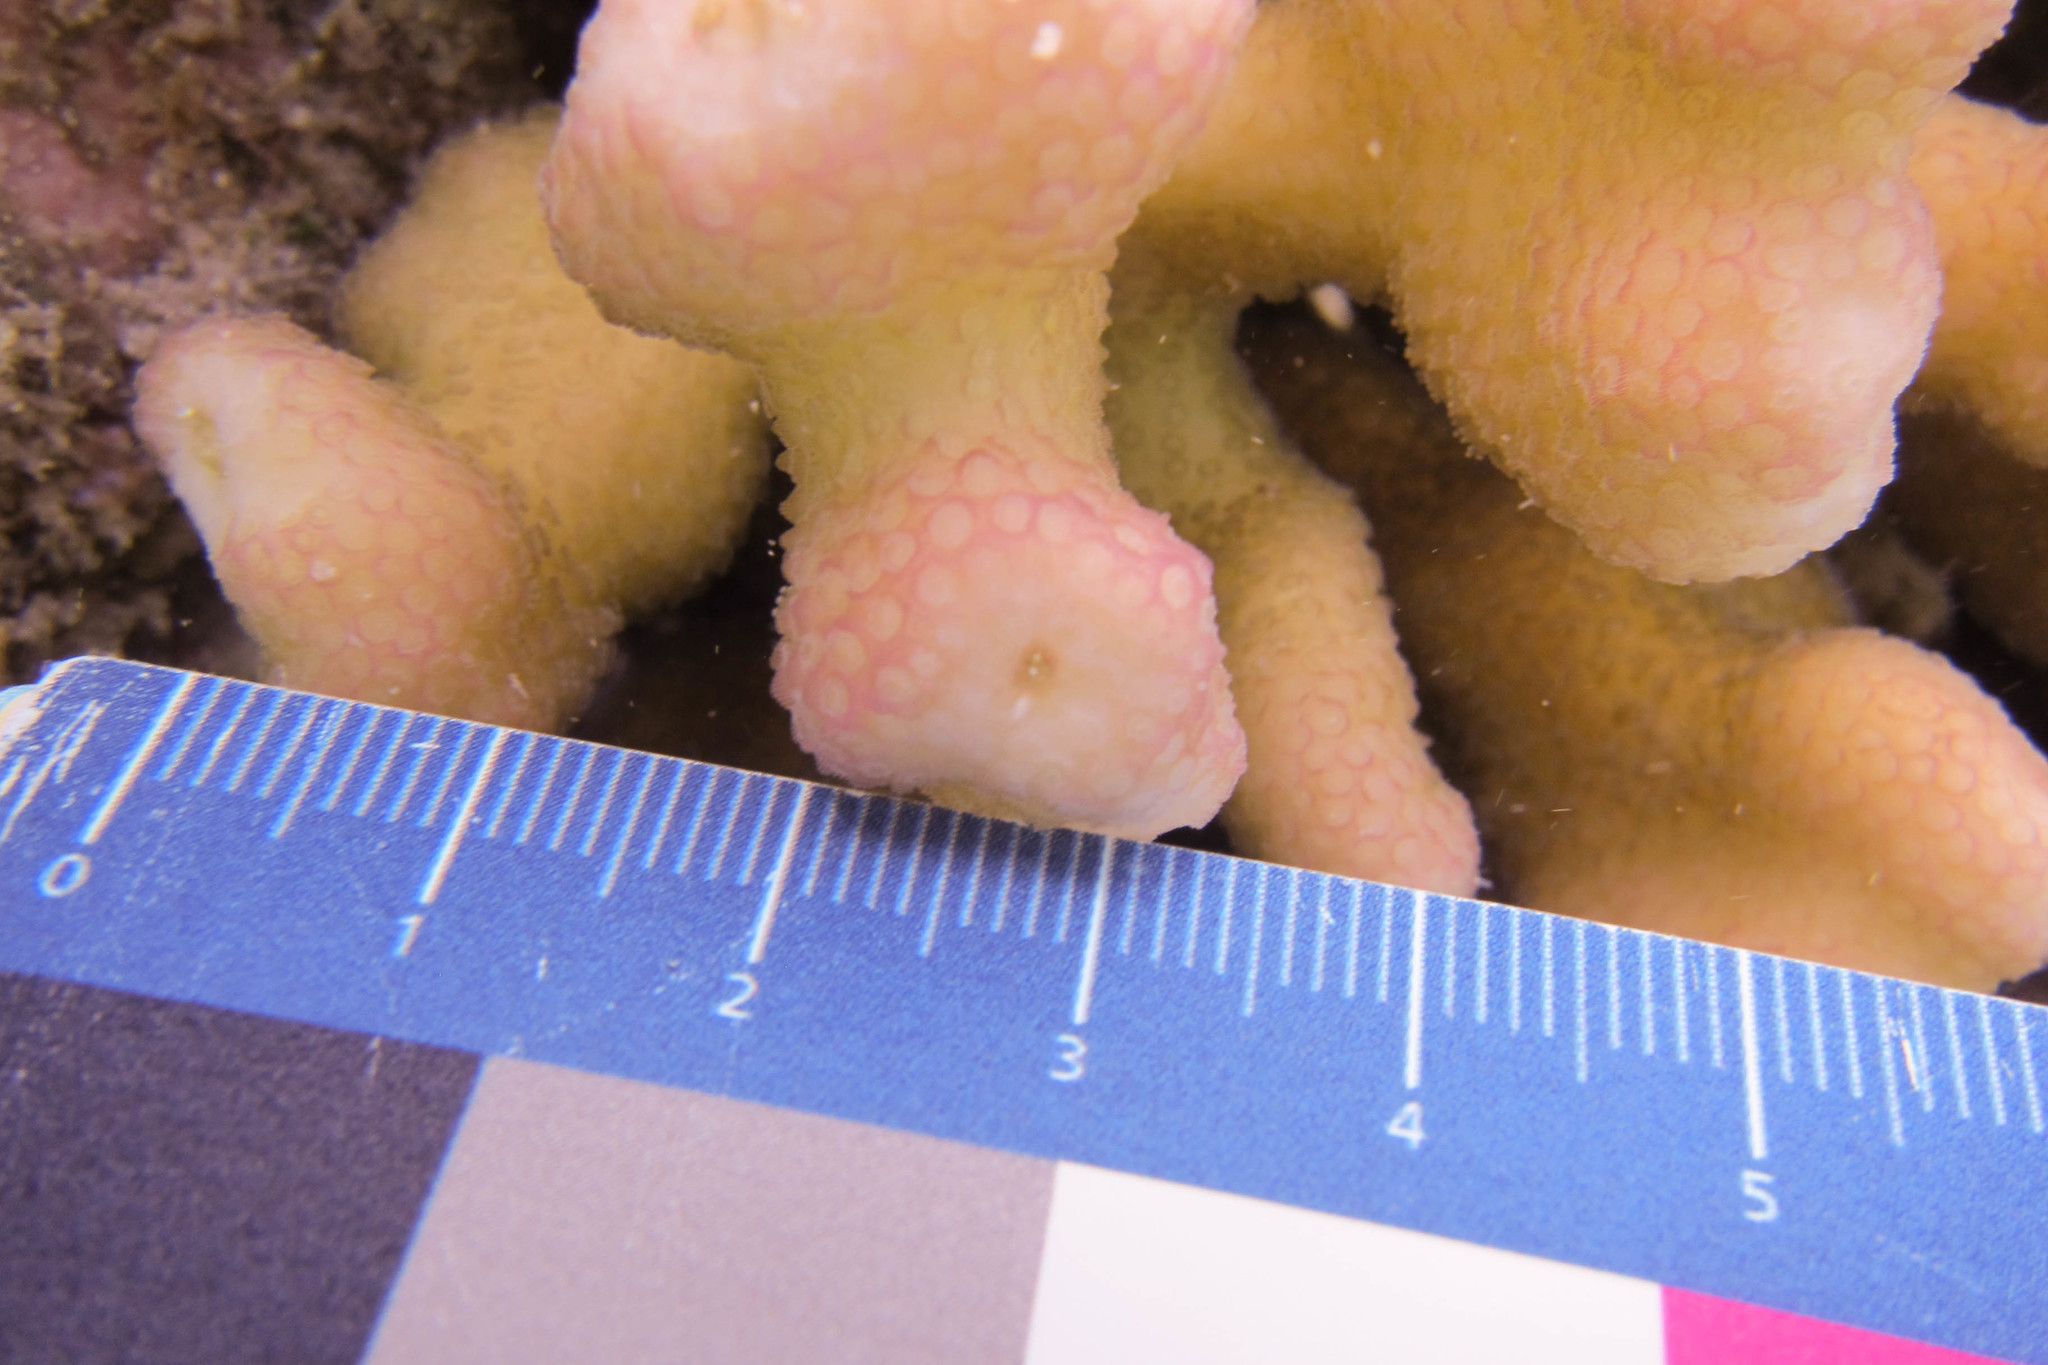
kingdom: Animalia
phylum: Cnidaria
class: Anthozoa
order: Scleractinia
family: Pocilloporidae
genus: Stylophora
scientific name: Stylophora pistillata
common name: Hood coral
